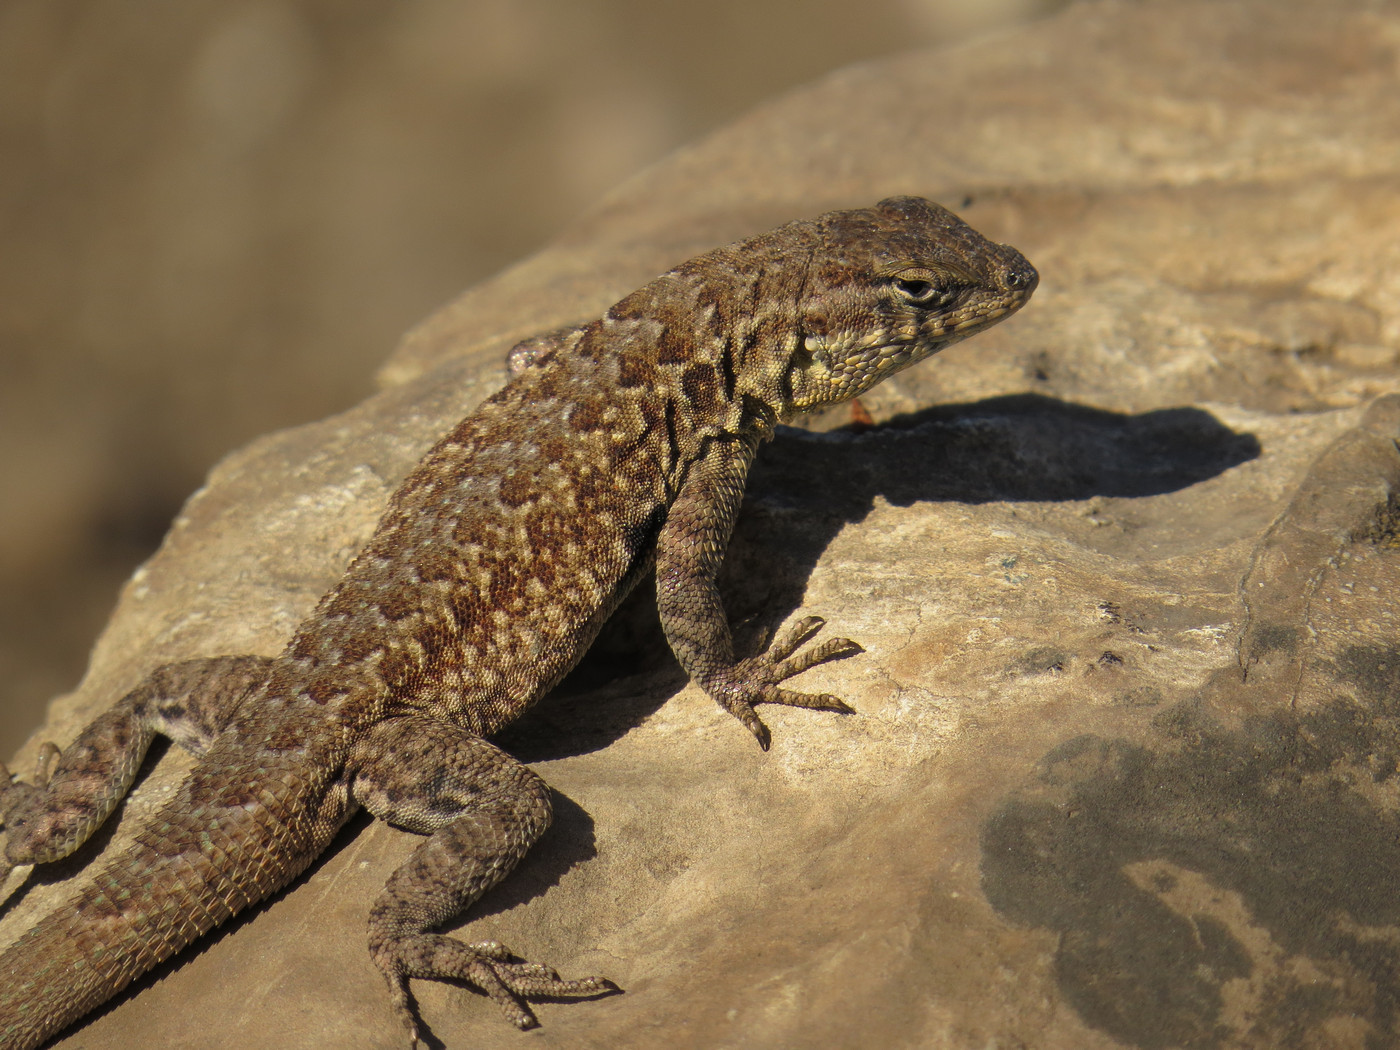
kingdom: Animalia
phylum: Chordata
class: Squamata
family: Phrynosomatidae
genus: Uta
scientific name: Uta stansburiana
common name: Side-blotched lizard
